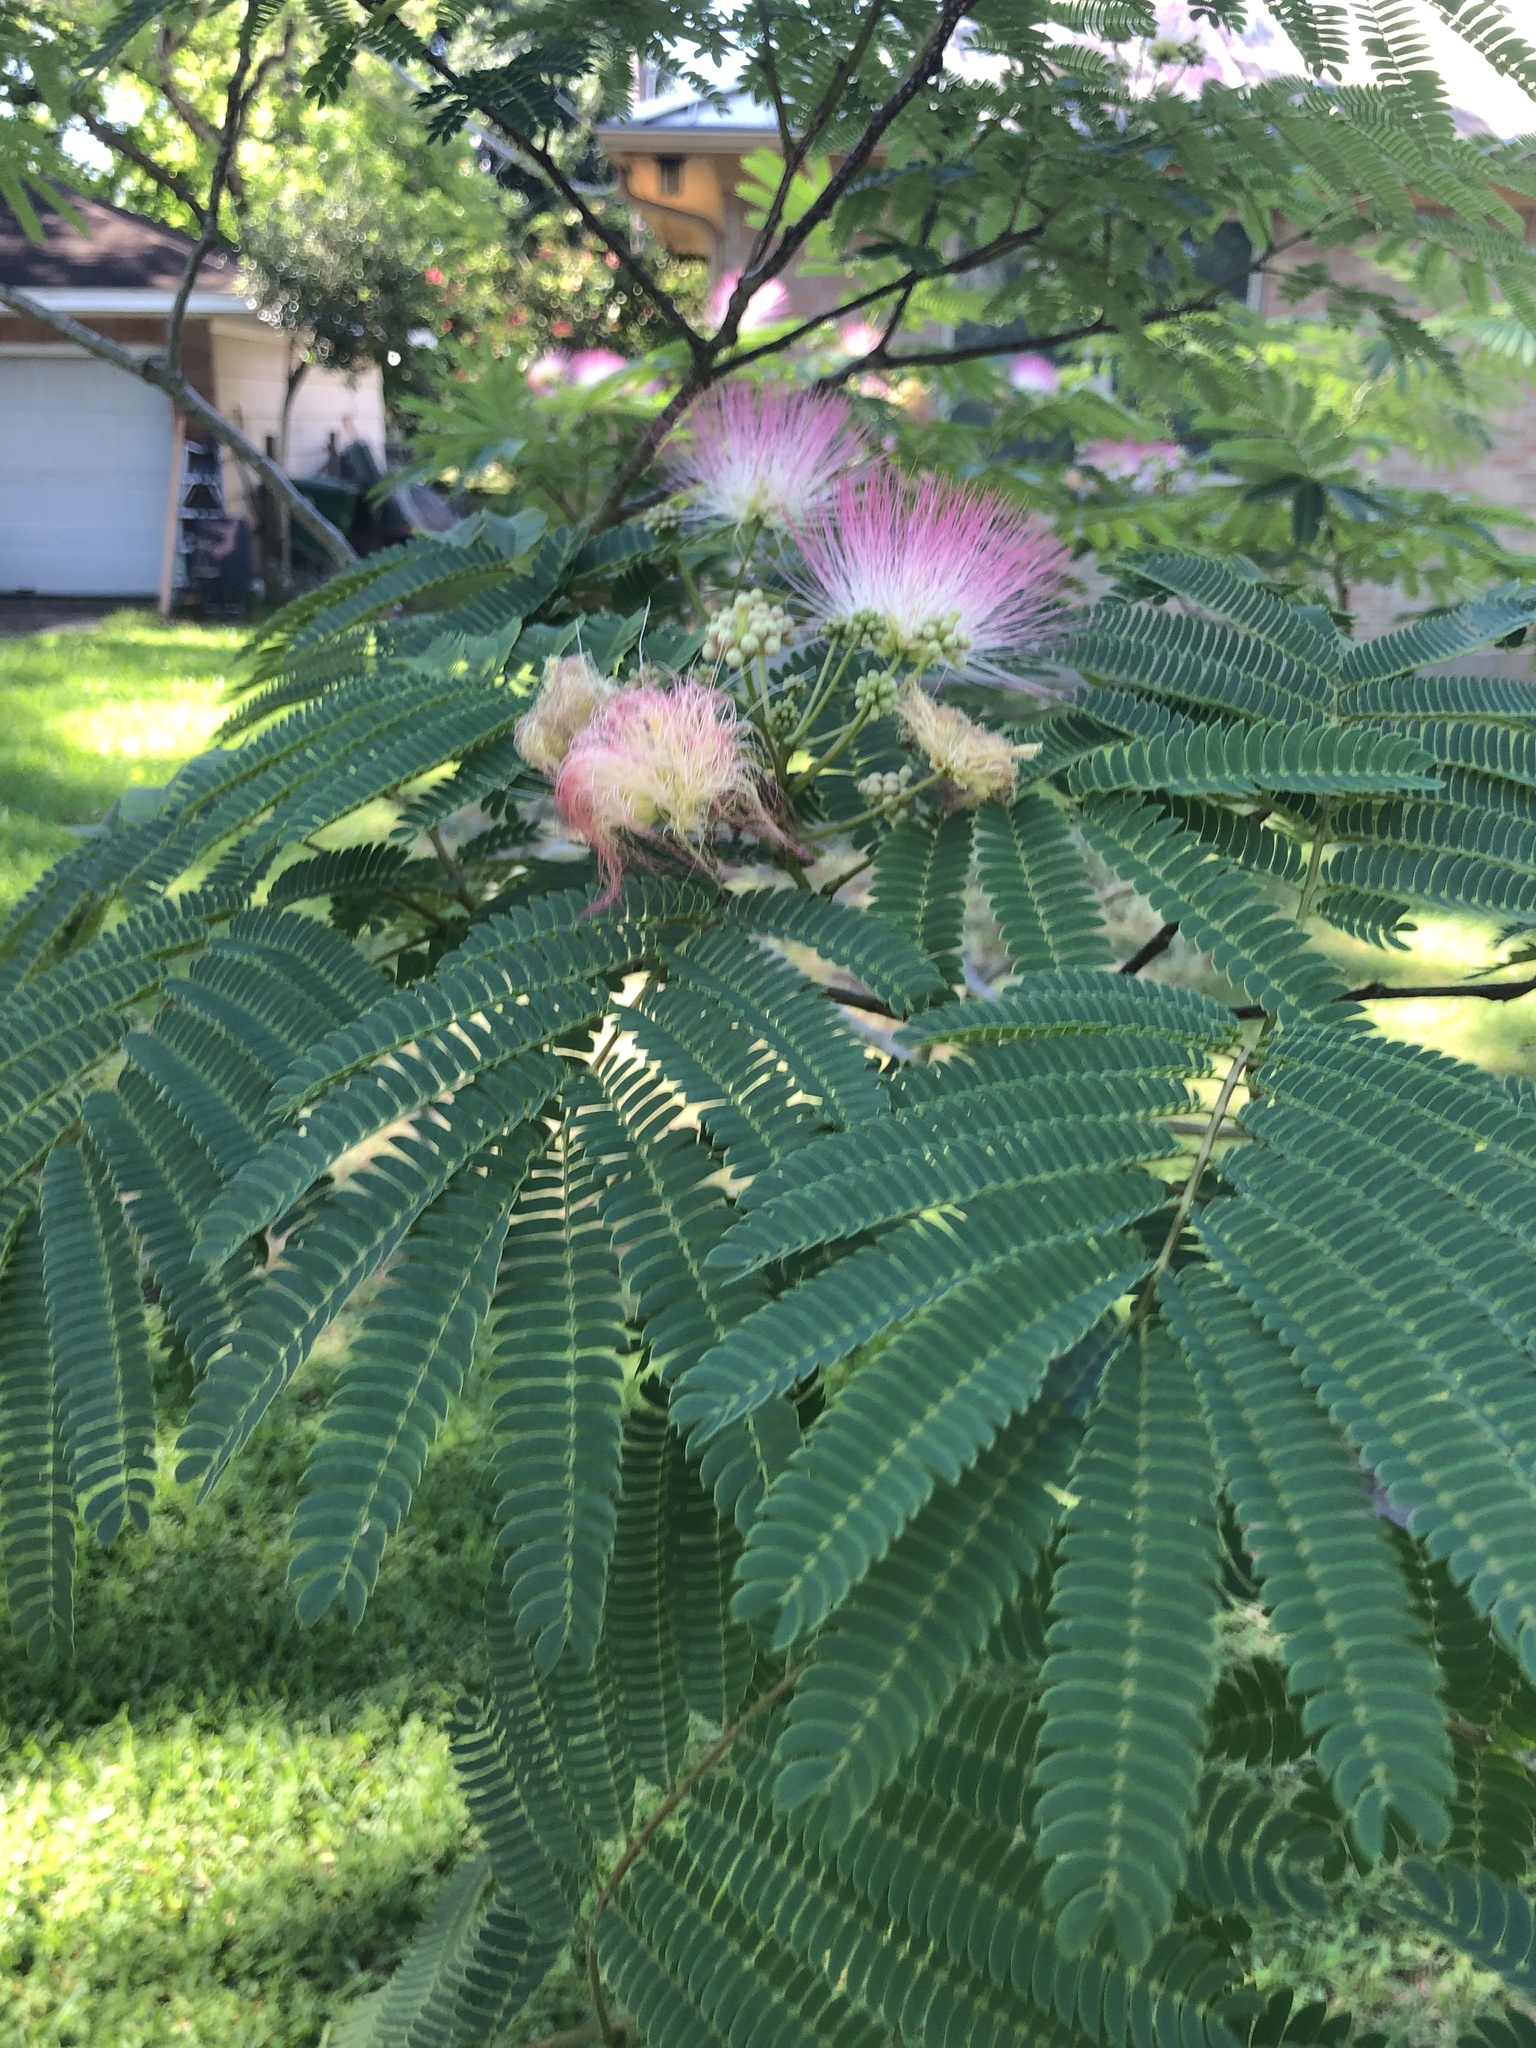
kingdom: Plantae
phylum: Tracheophyta
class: Magnoliopsida
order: Fabales
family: Fabaceae
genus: Albizia
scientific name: Albizia julibrissin
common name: Silktree
